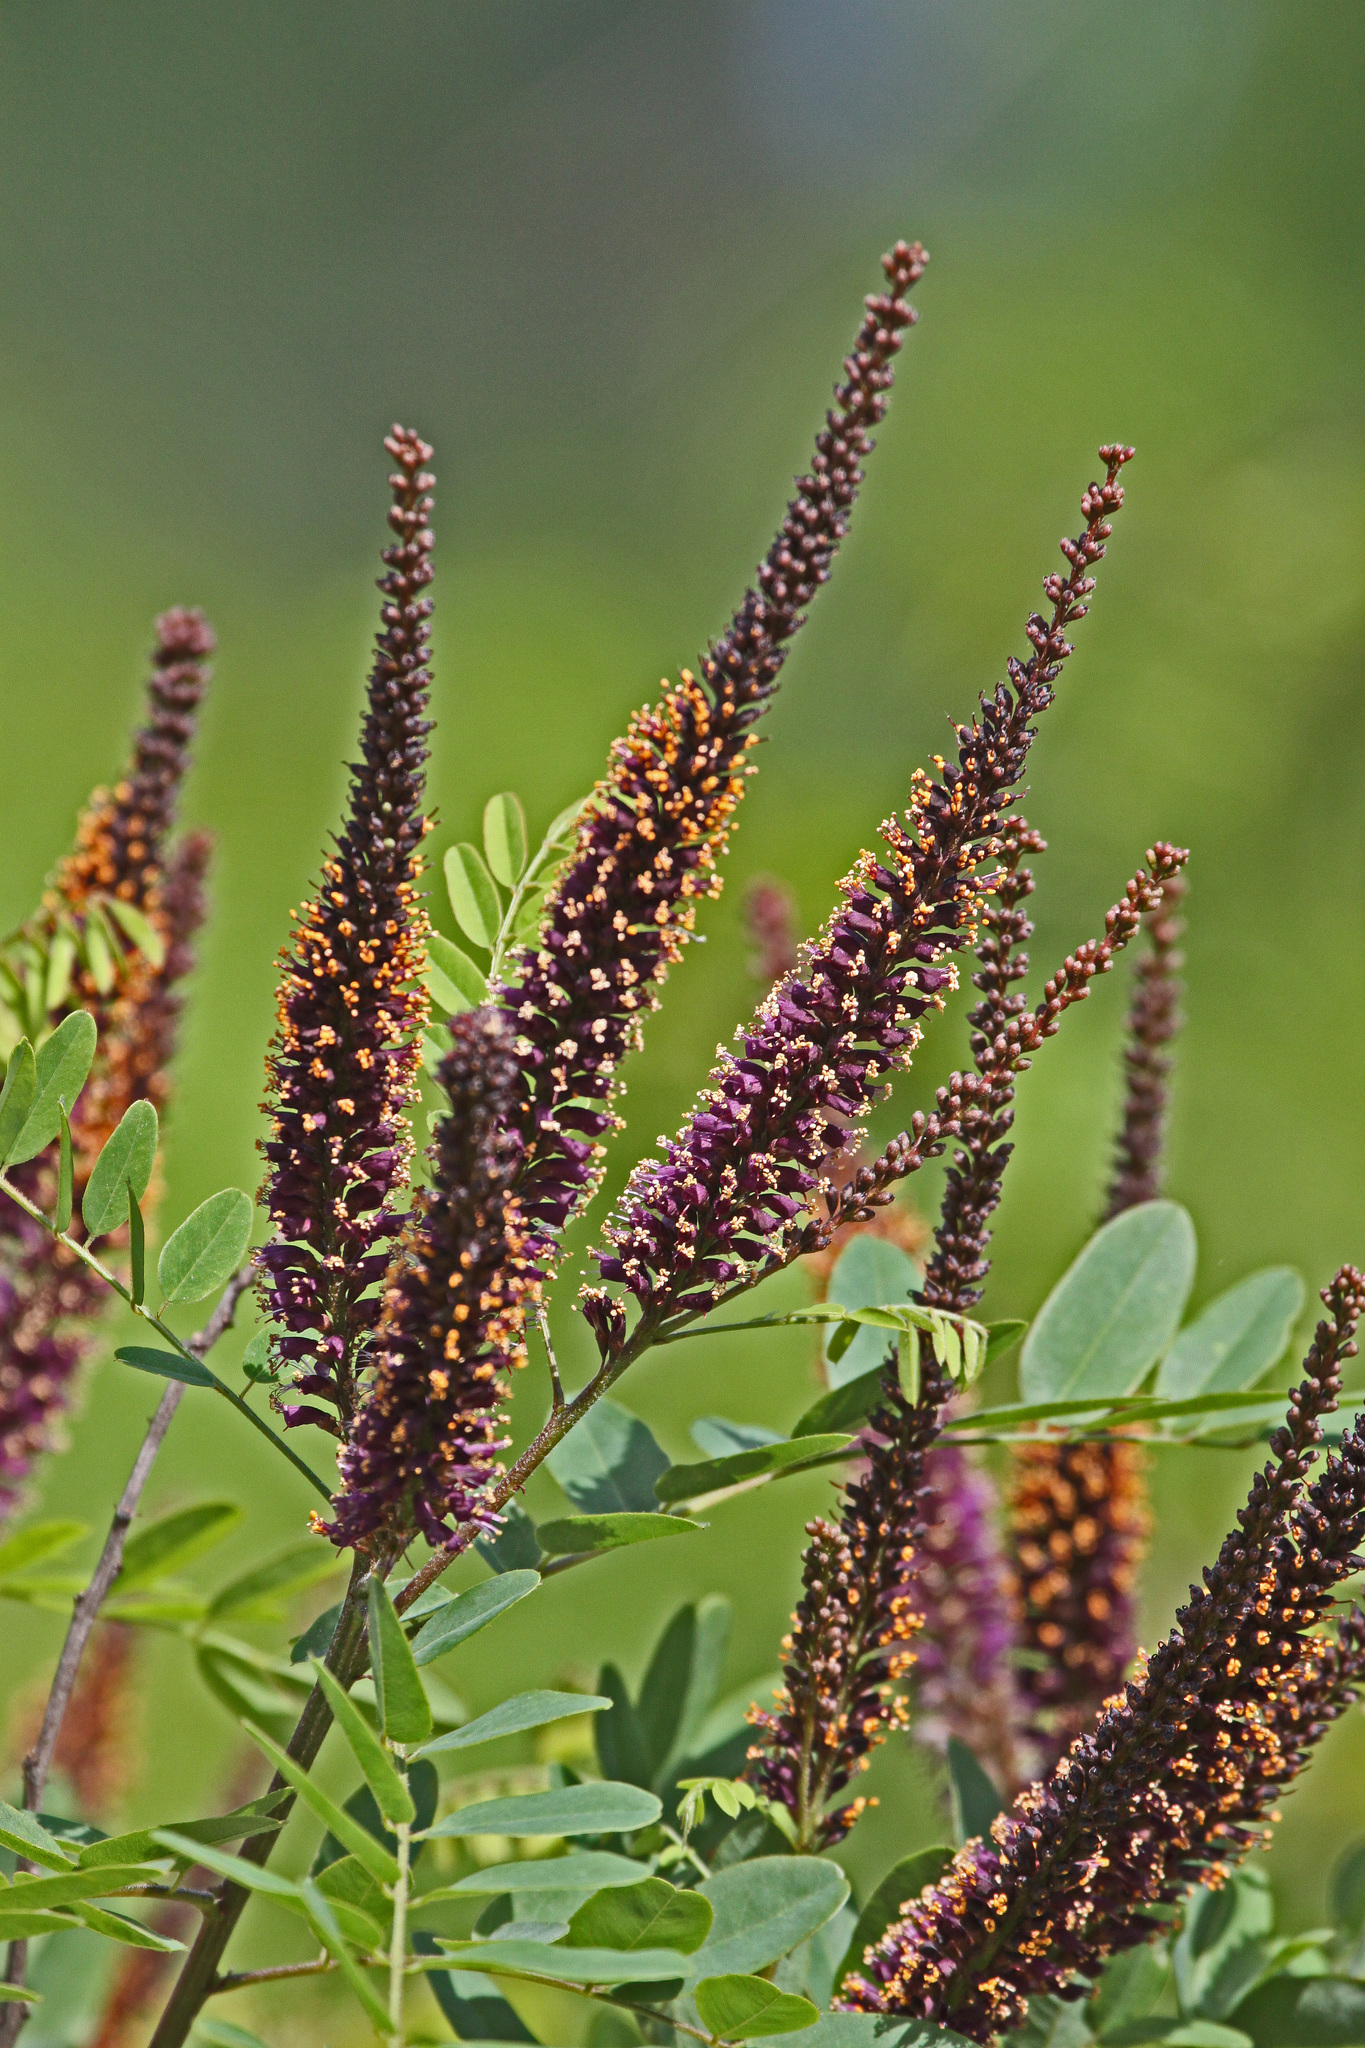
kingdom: Plantae
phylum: Tracheophyta
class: Magnoliopsida
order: Fabales
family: Fabaceae
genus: Amorpha
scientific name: Amorpha fruticosa
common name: False indigo
